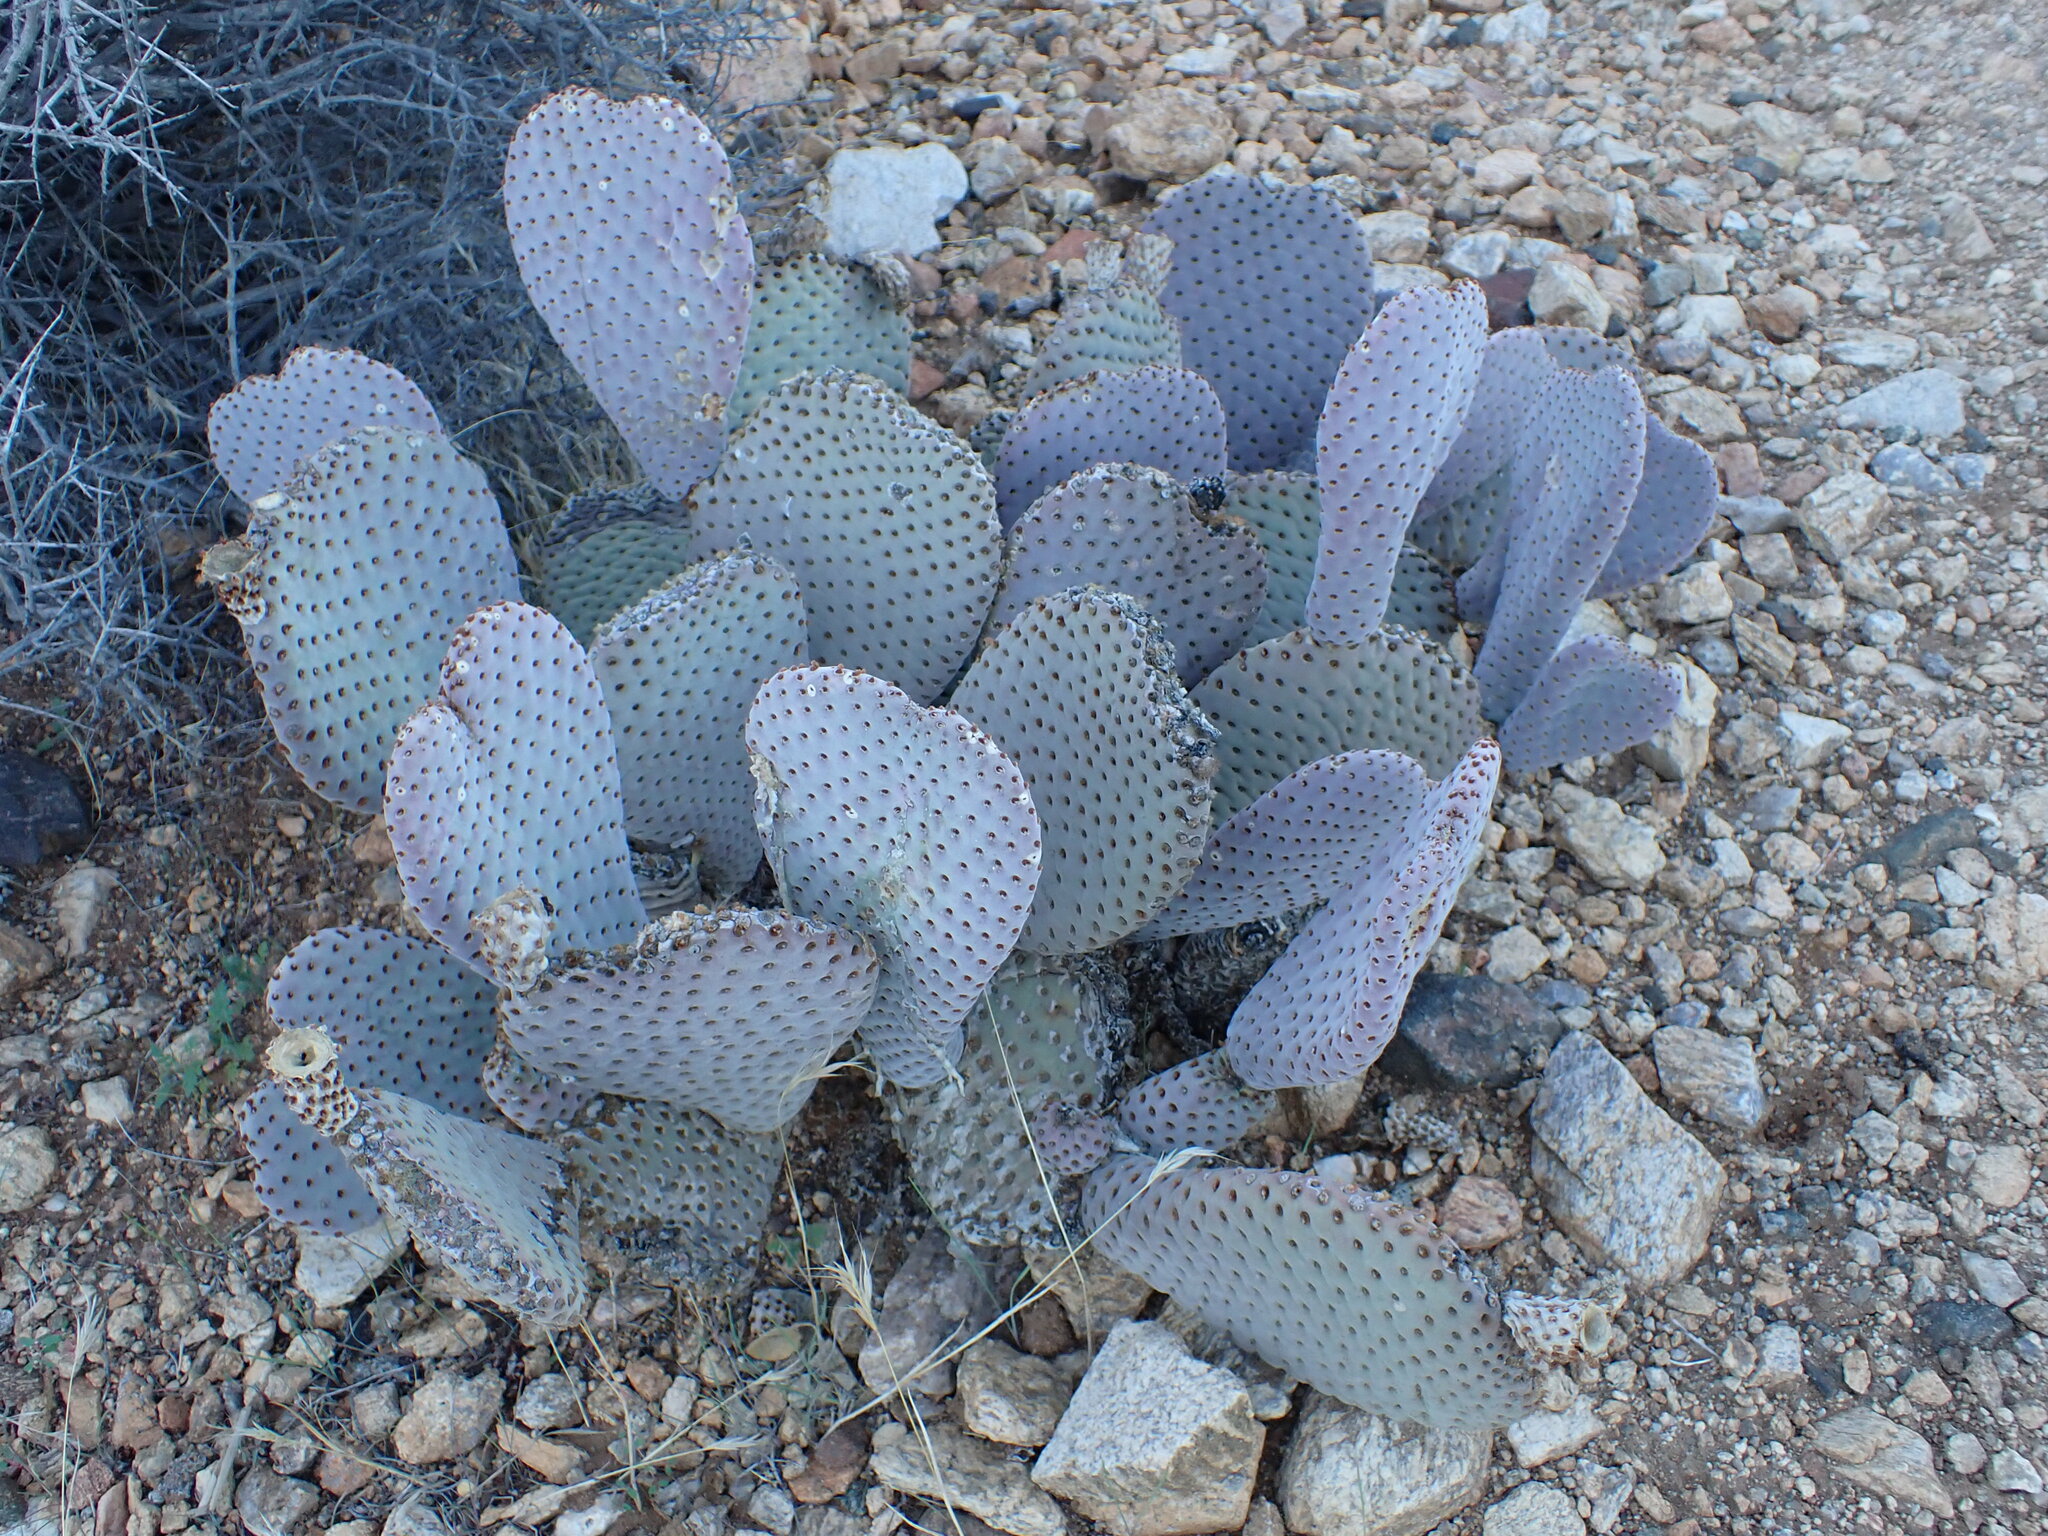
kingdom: Plantae
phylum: Tracheophyta
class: Magnoliopsida
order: Caryophyllales
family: Cactaceae
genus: Opuntia
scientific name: Opuntia basilaris
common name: Beavertail prickly-pear
